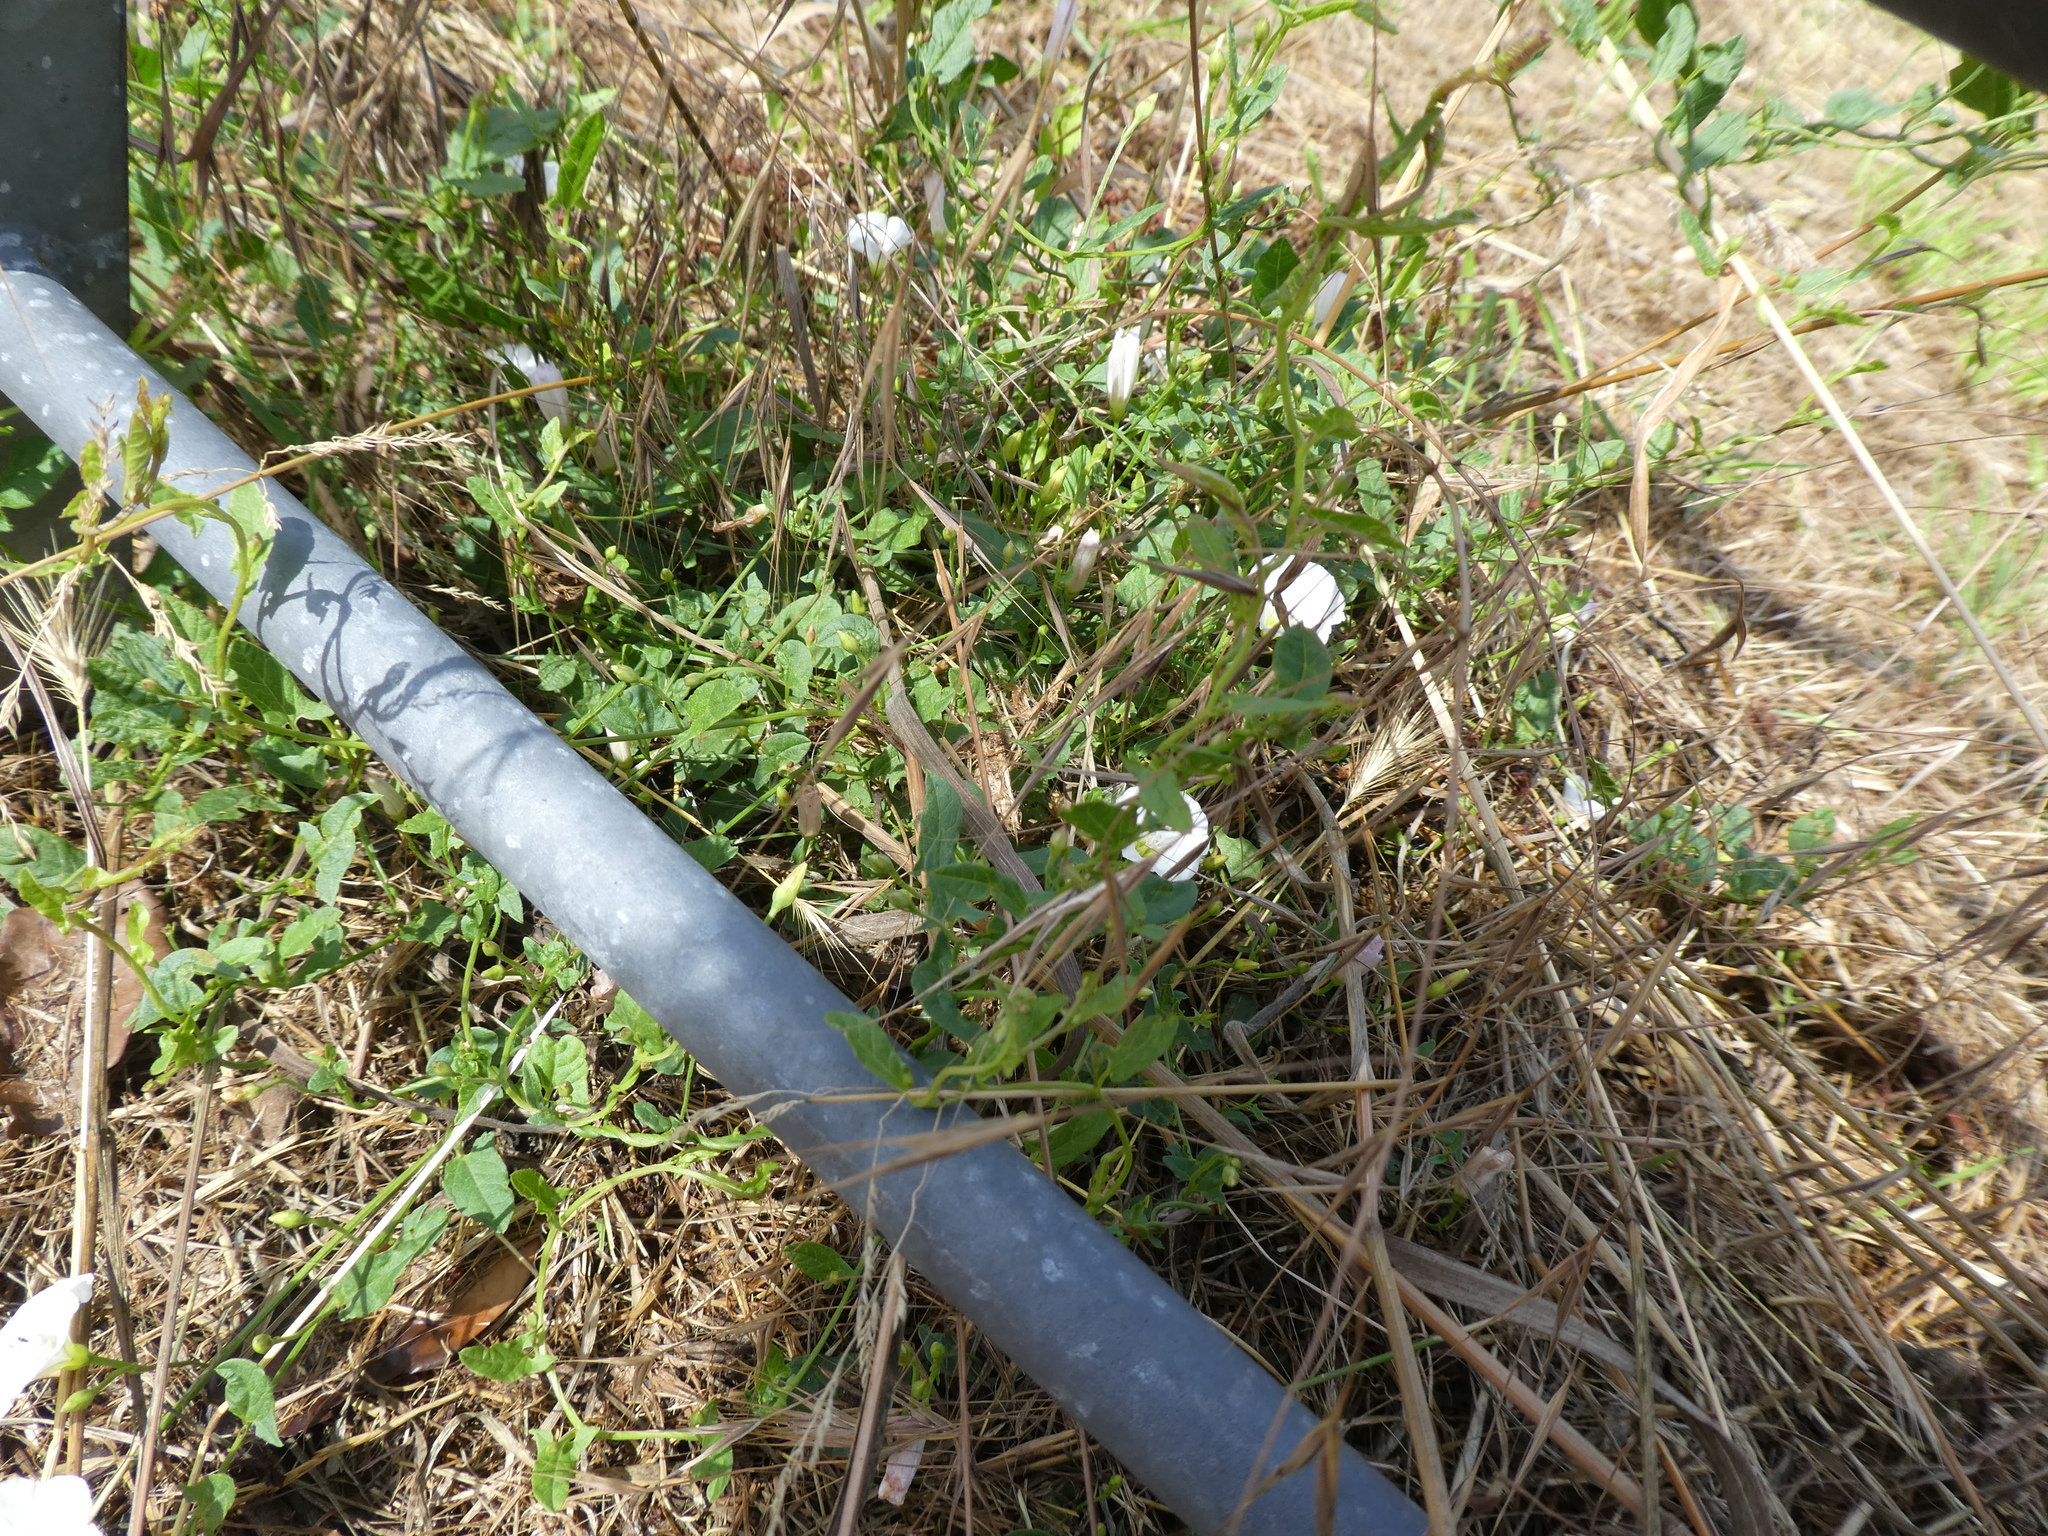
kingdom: Plantae
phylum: Tracheophyta
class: Magnoliopsida
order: Solanales
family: Convolvulaceae
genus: Convolvulus
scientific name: Convolvulus arvensis
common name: Field bindweed
